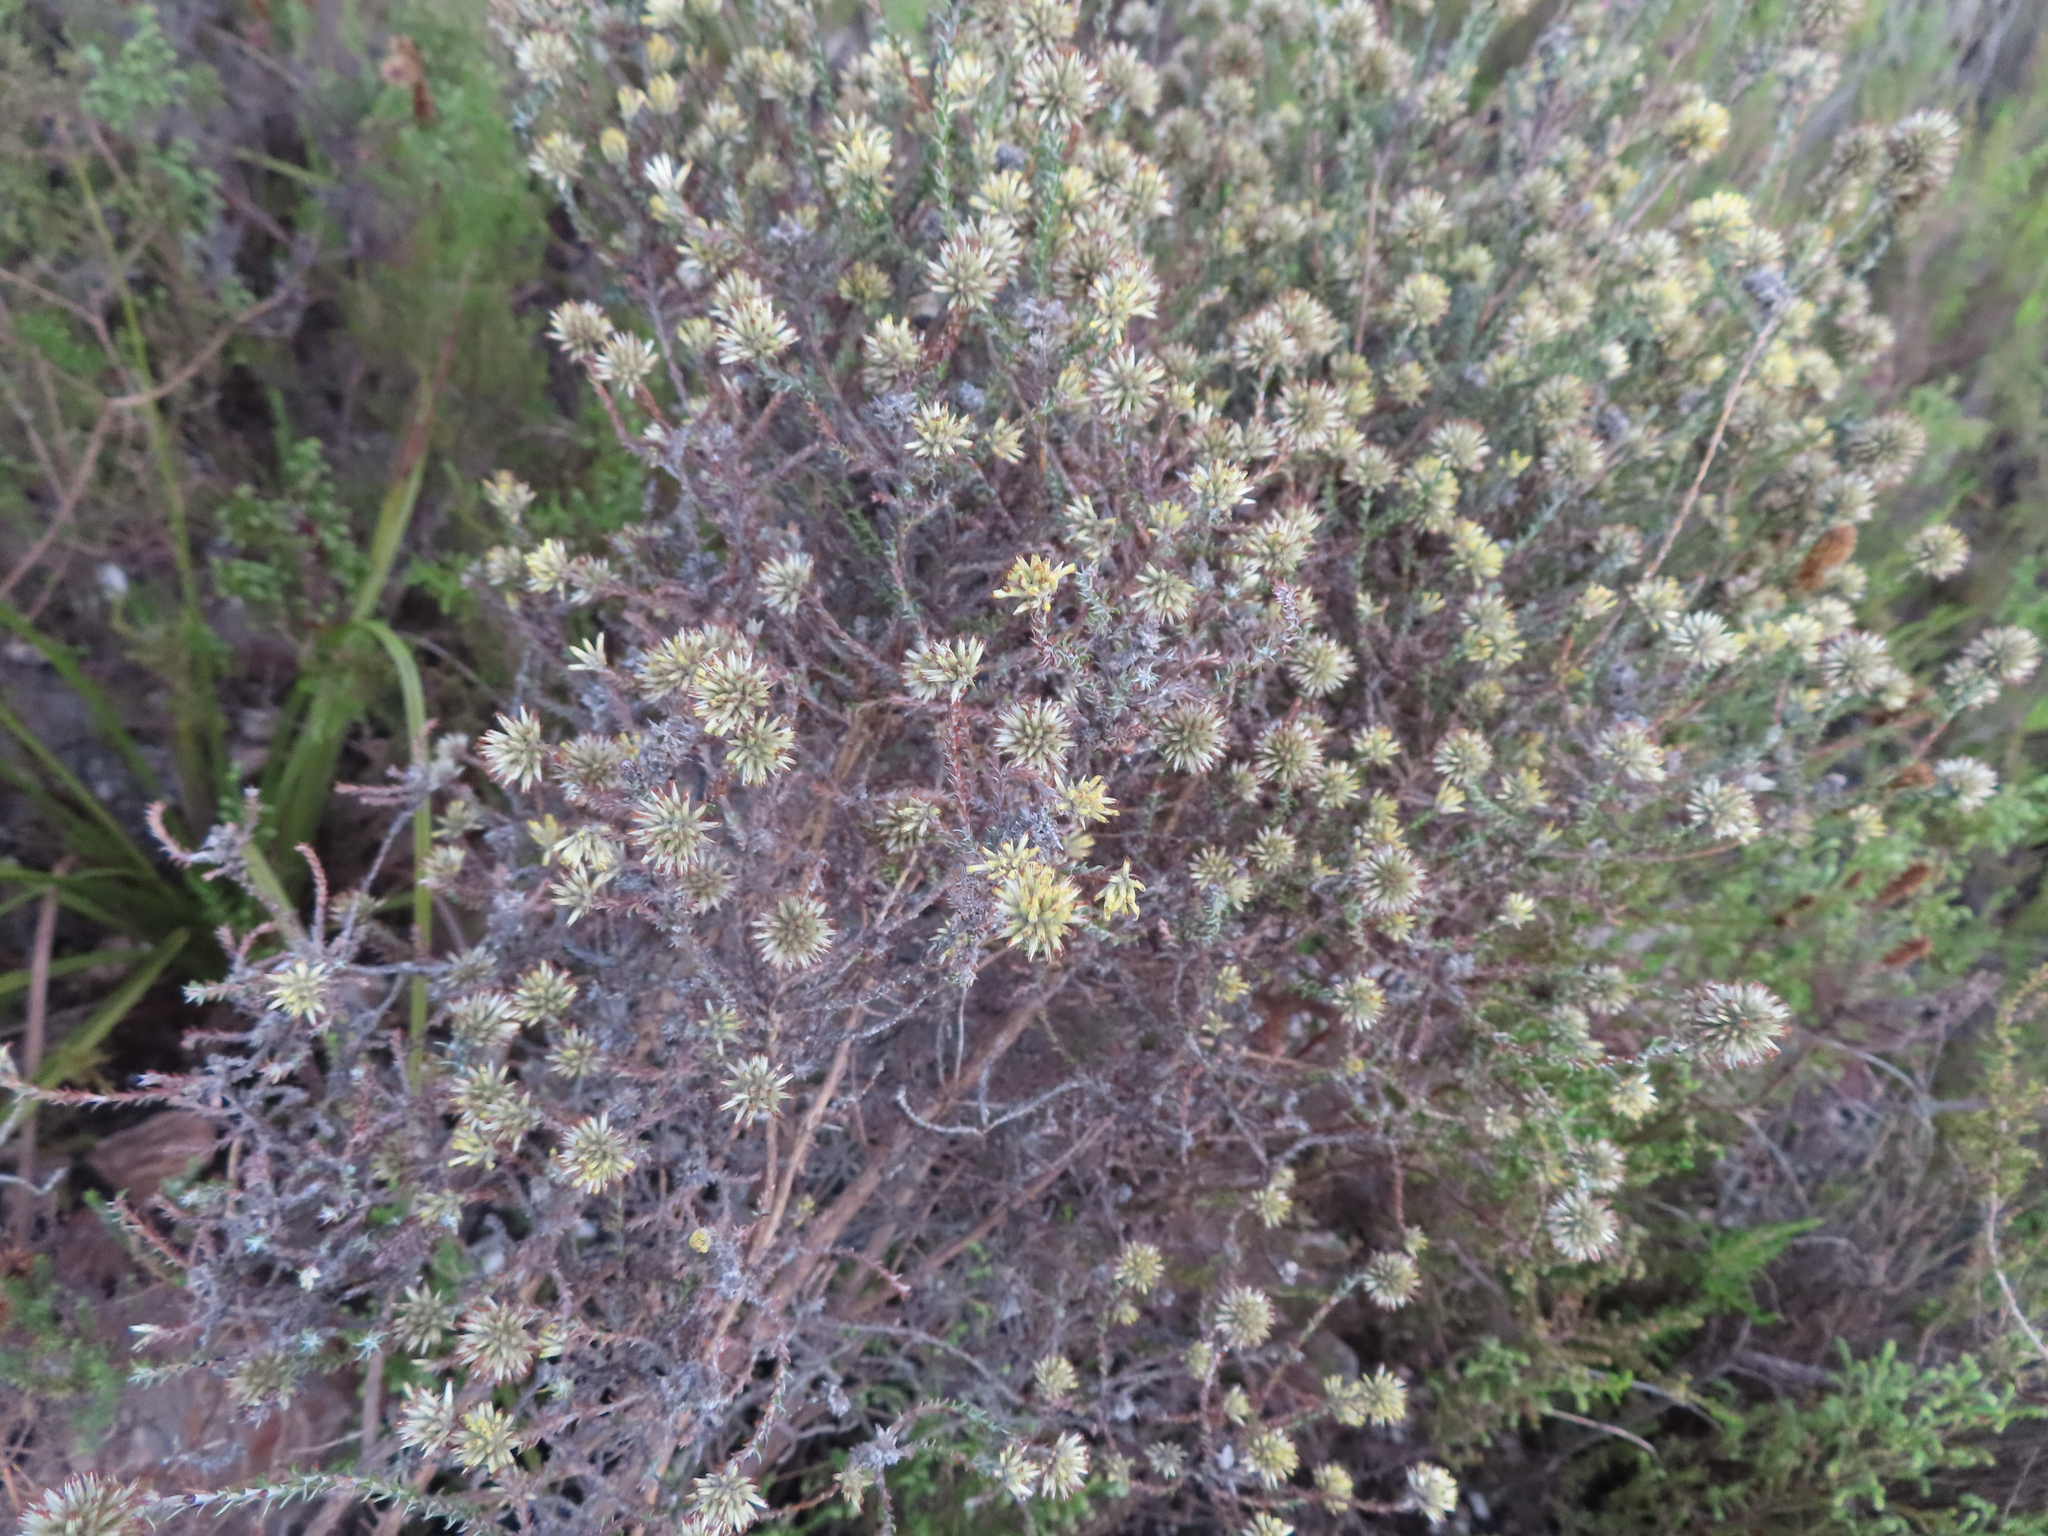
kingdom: Plantae
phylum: Tracheophyta
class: Magnoliopsida
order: Asterales
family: Asteraceae
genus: Seriphium
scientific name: Seriphium spirale
